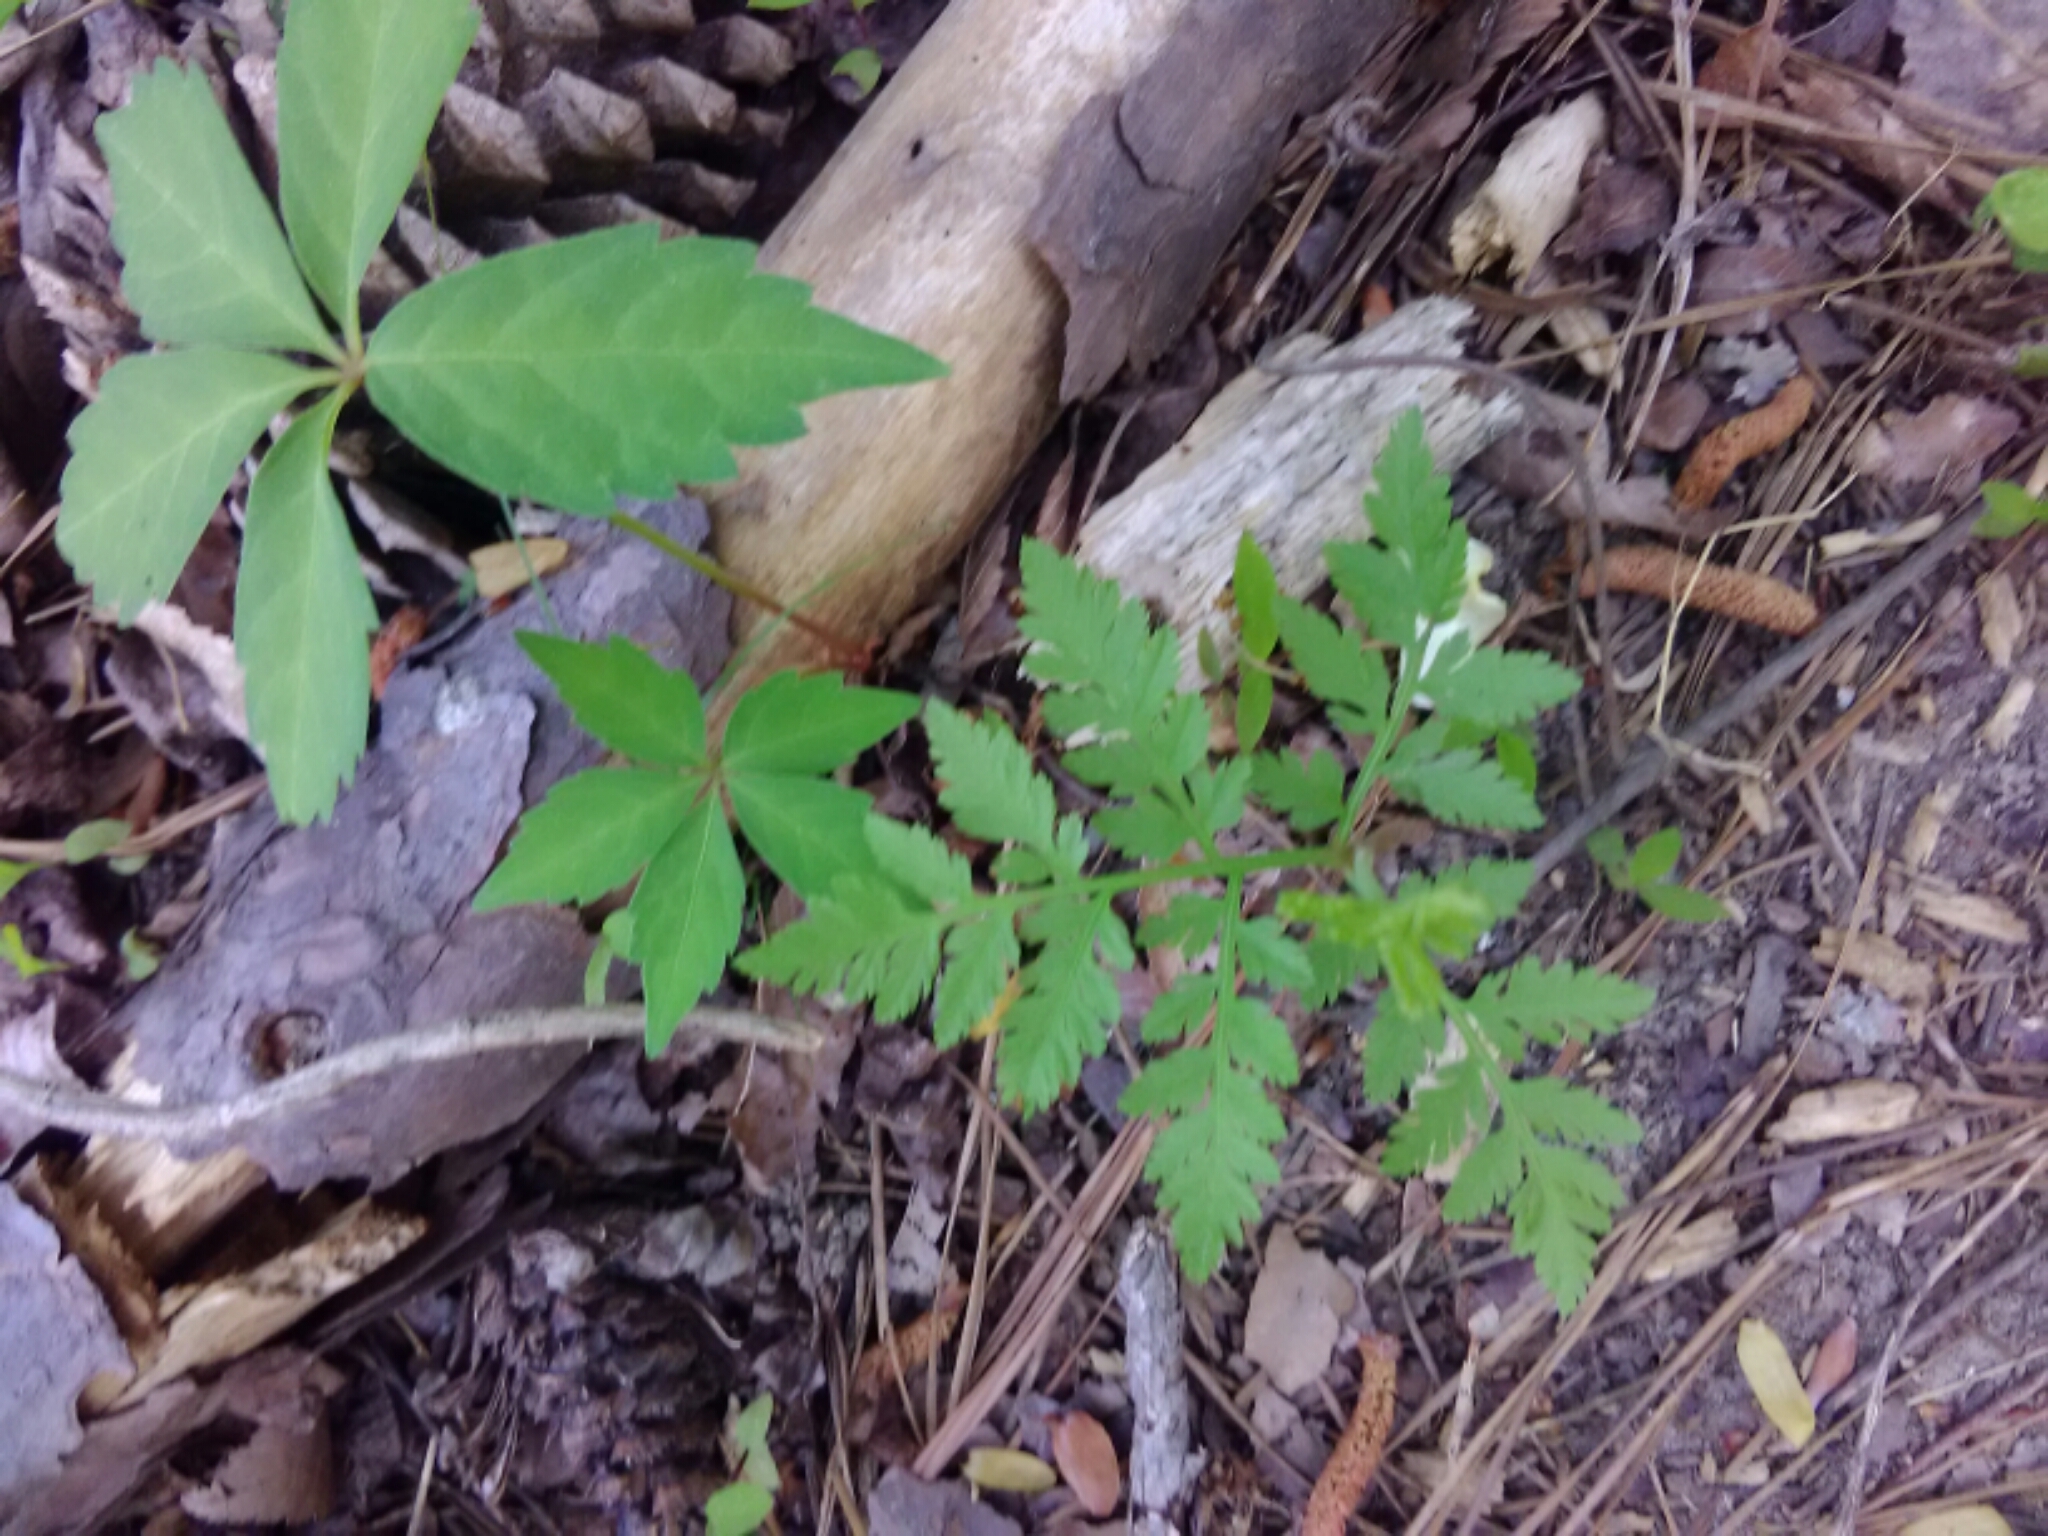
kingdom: Plantae
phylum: Tracheophyta
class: Polypodiopsida
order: Ophioglossales
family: Ophioglossaceae
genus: Botrypus
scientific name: Botrypus virginianus
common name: Common grapefern
